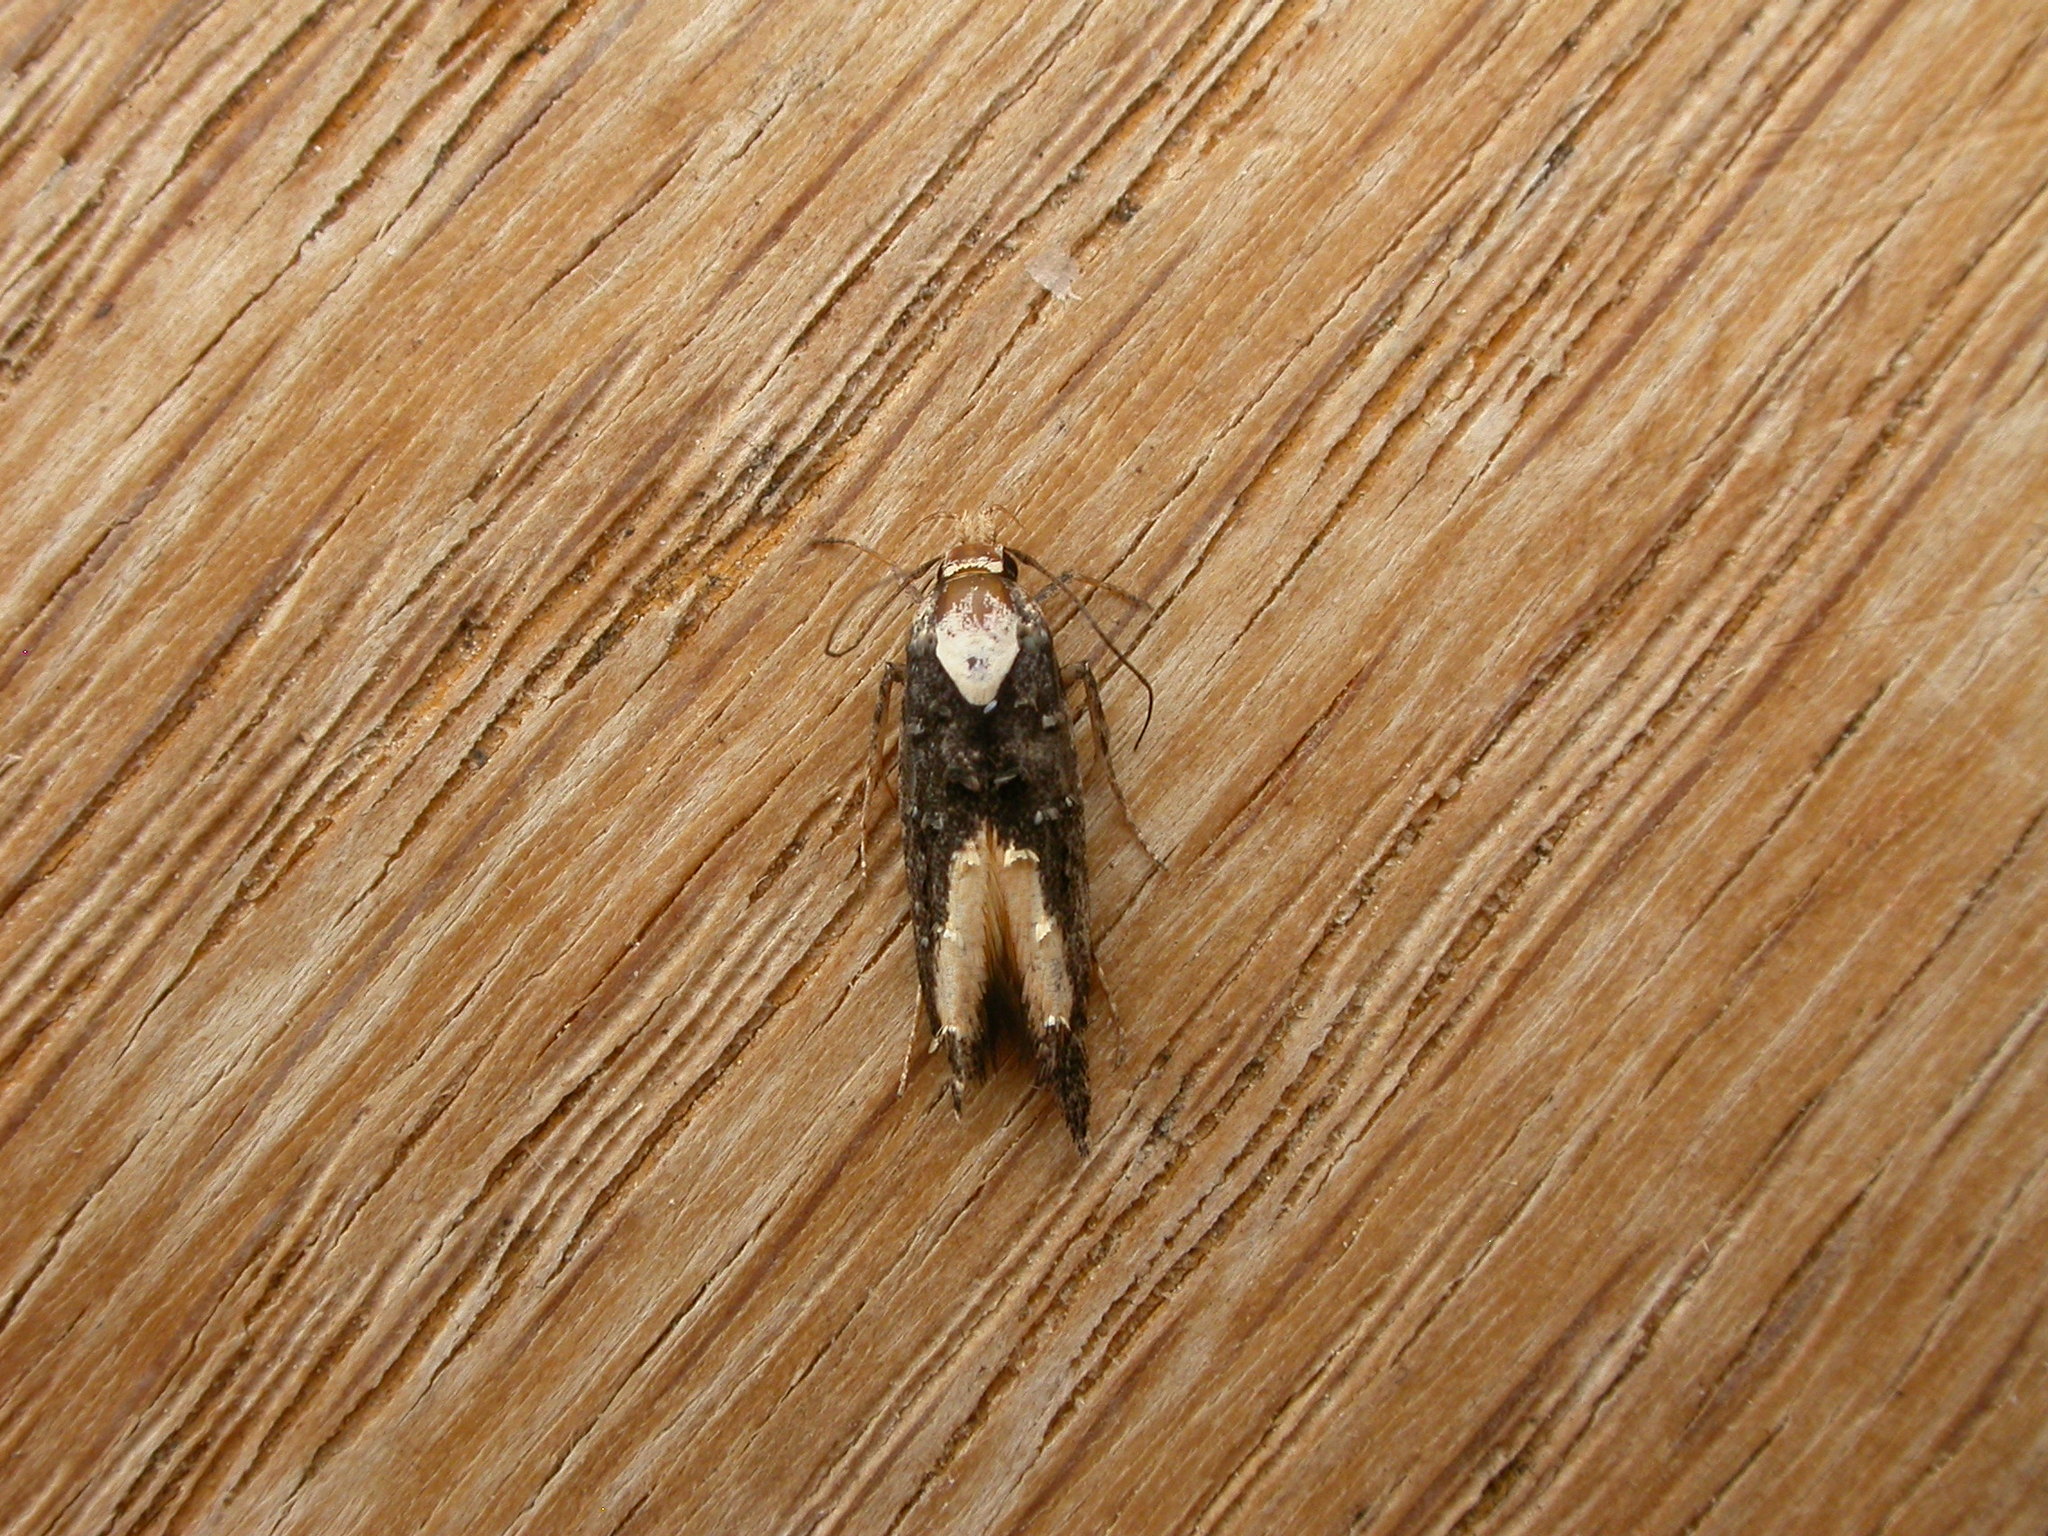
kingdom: Animalia
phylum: Arthropoda
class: Insecta
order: Lepidoptera
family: Elachistidae
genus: Trachydora
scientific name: Trachydora pygaea
